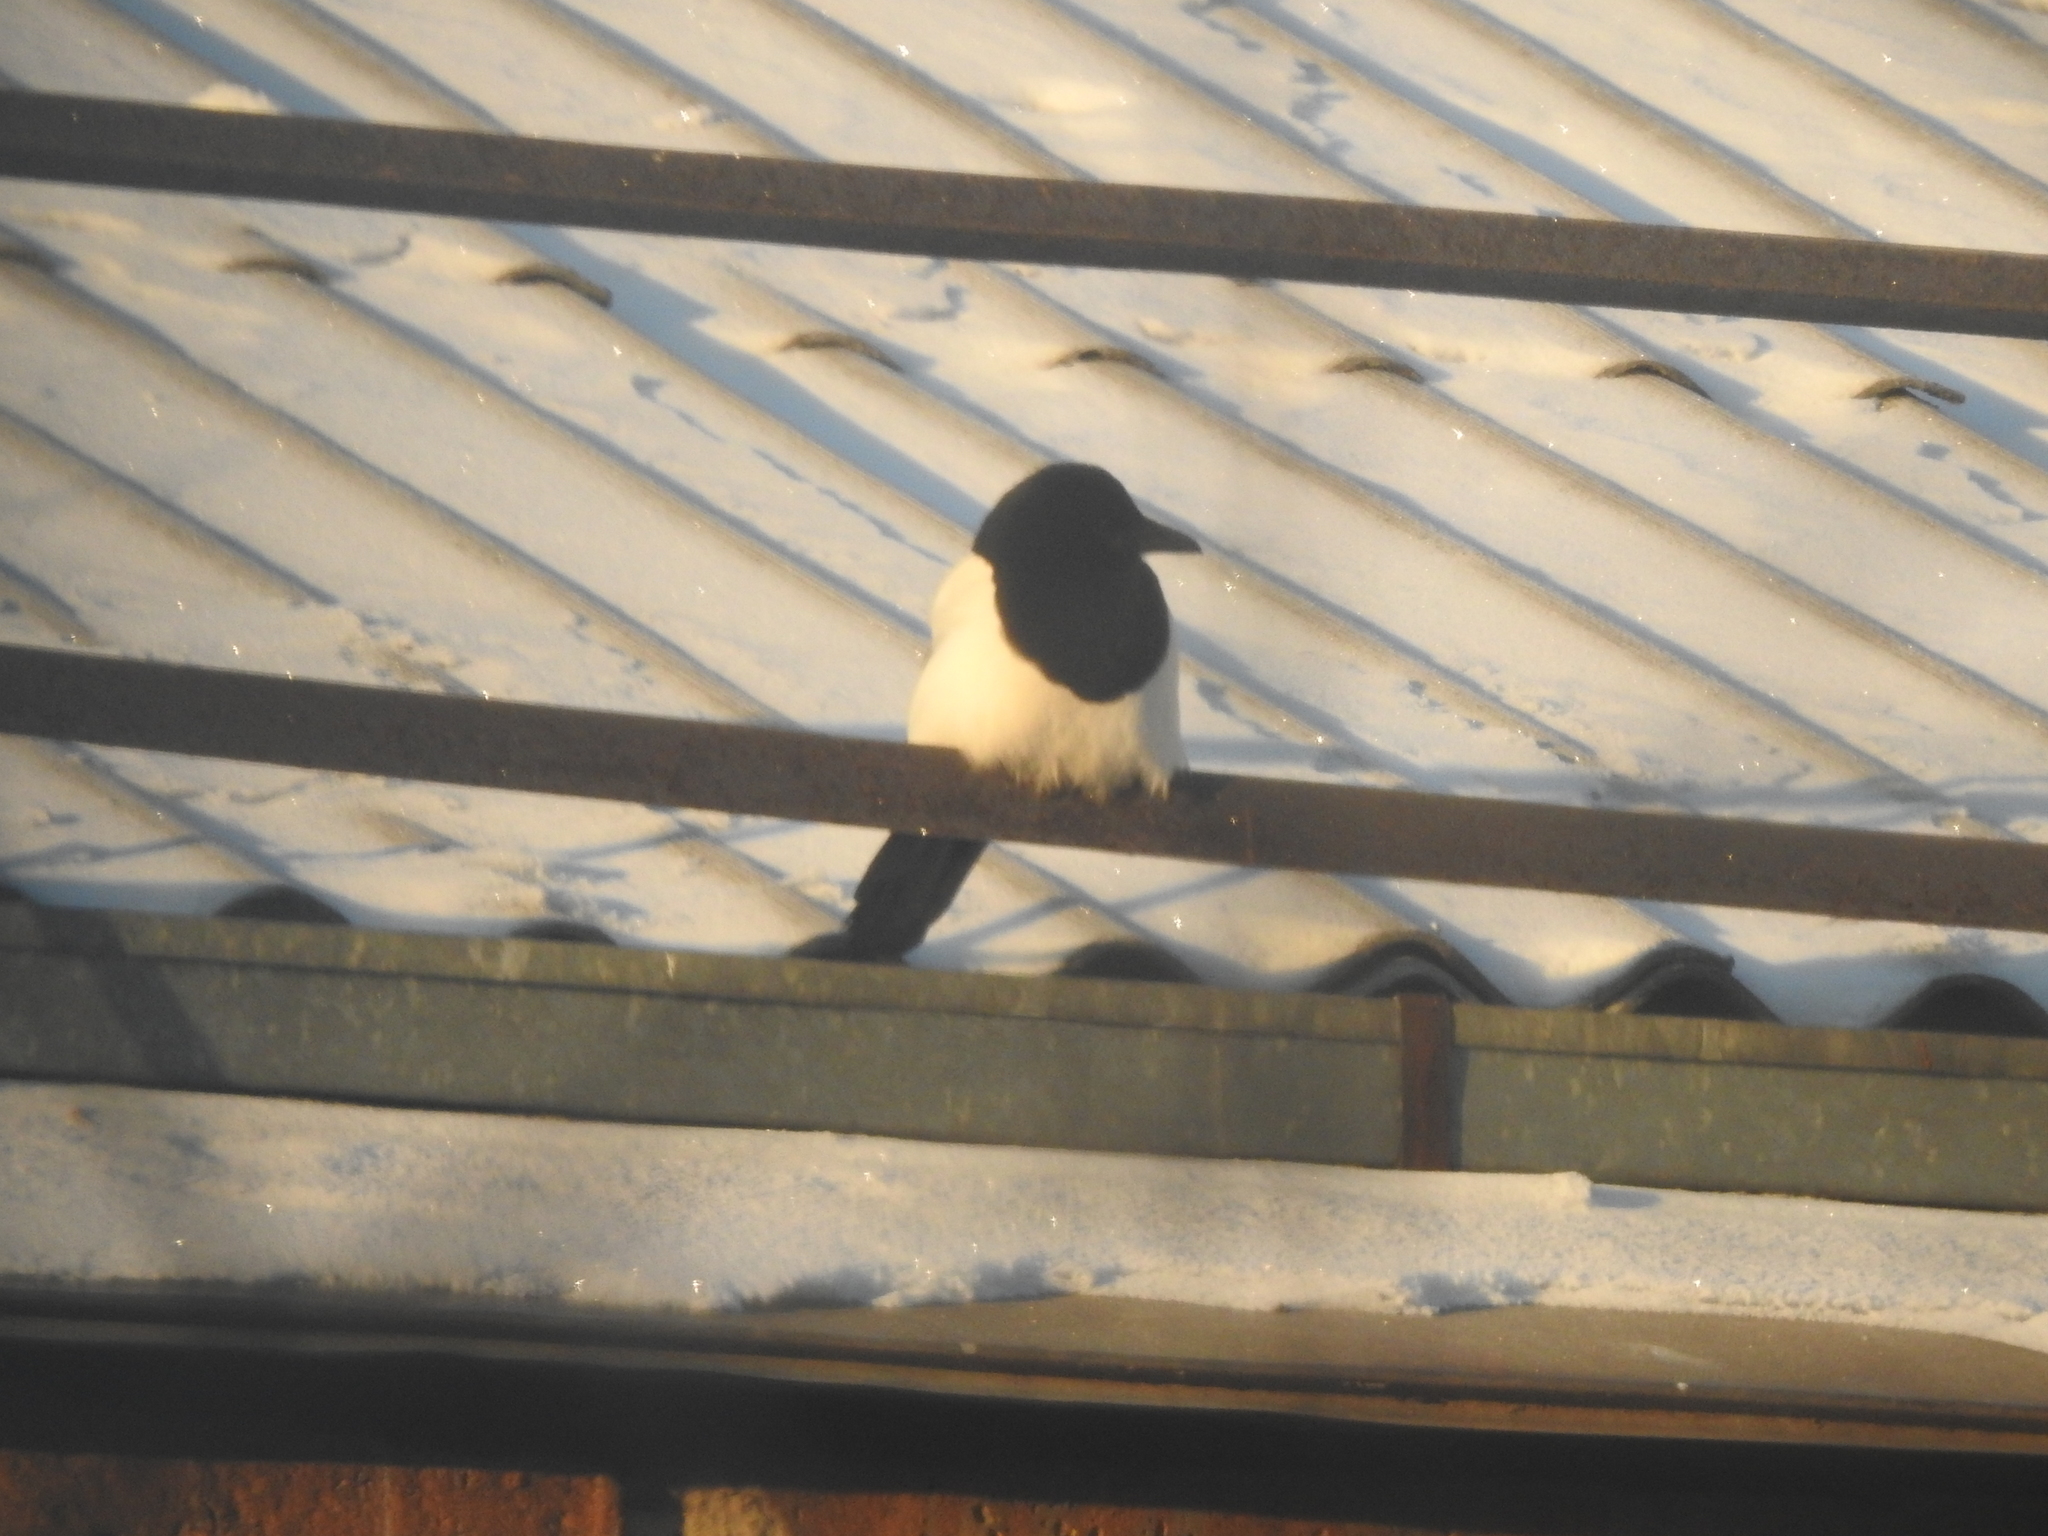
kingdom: Animalia
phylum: Chordata
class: Aves
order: Passeriformes
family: Corvidae
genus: Pica
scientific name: Pica pica
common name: Eurasian magpie
